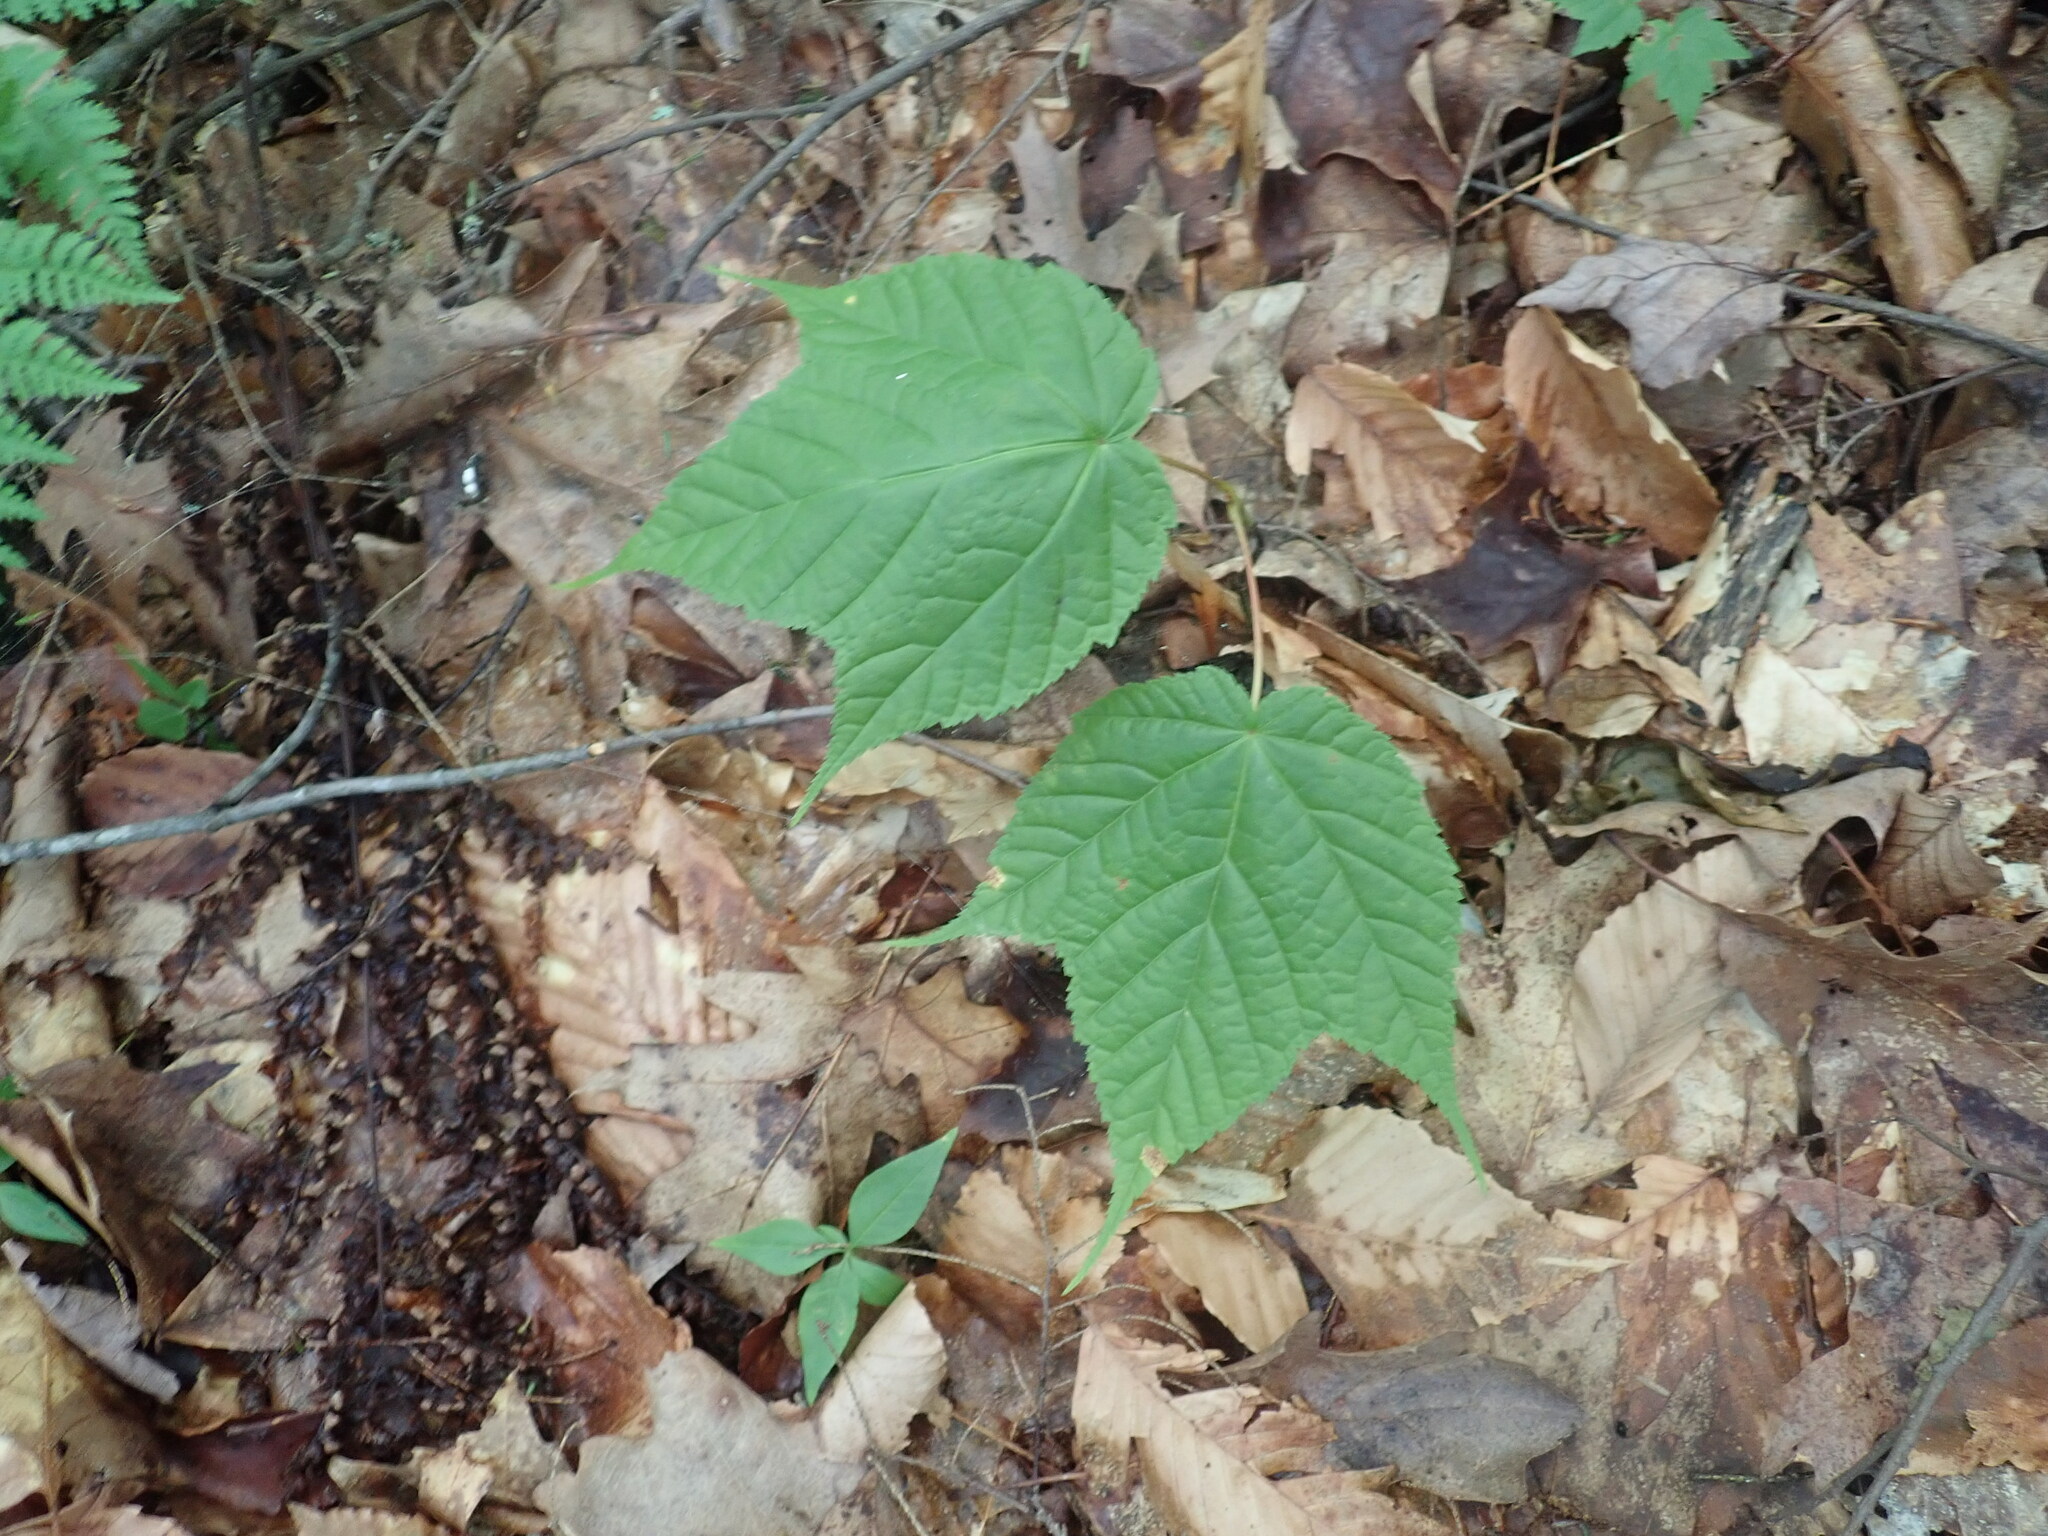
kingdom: Plantae
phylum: Tracheophyta
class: Magnoliopsida
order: Sapindales
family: Sapindaceae
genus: Acer
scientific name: Acer pensylvanicum
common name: Moosewood
